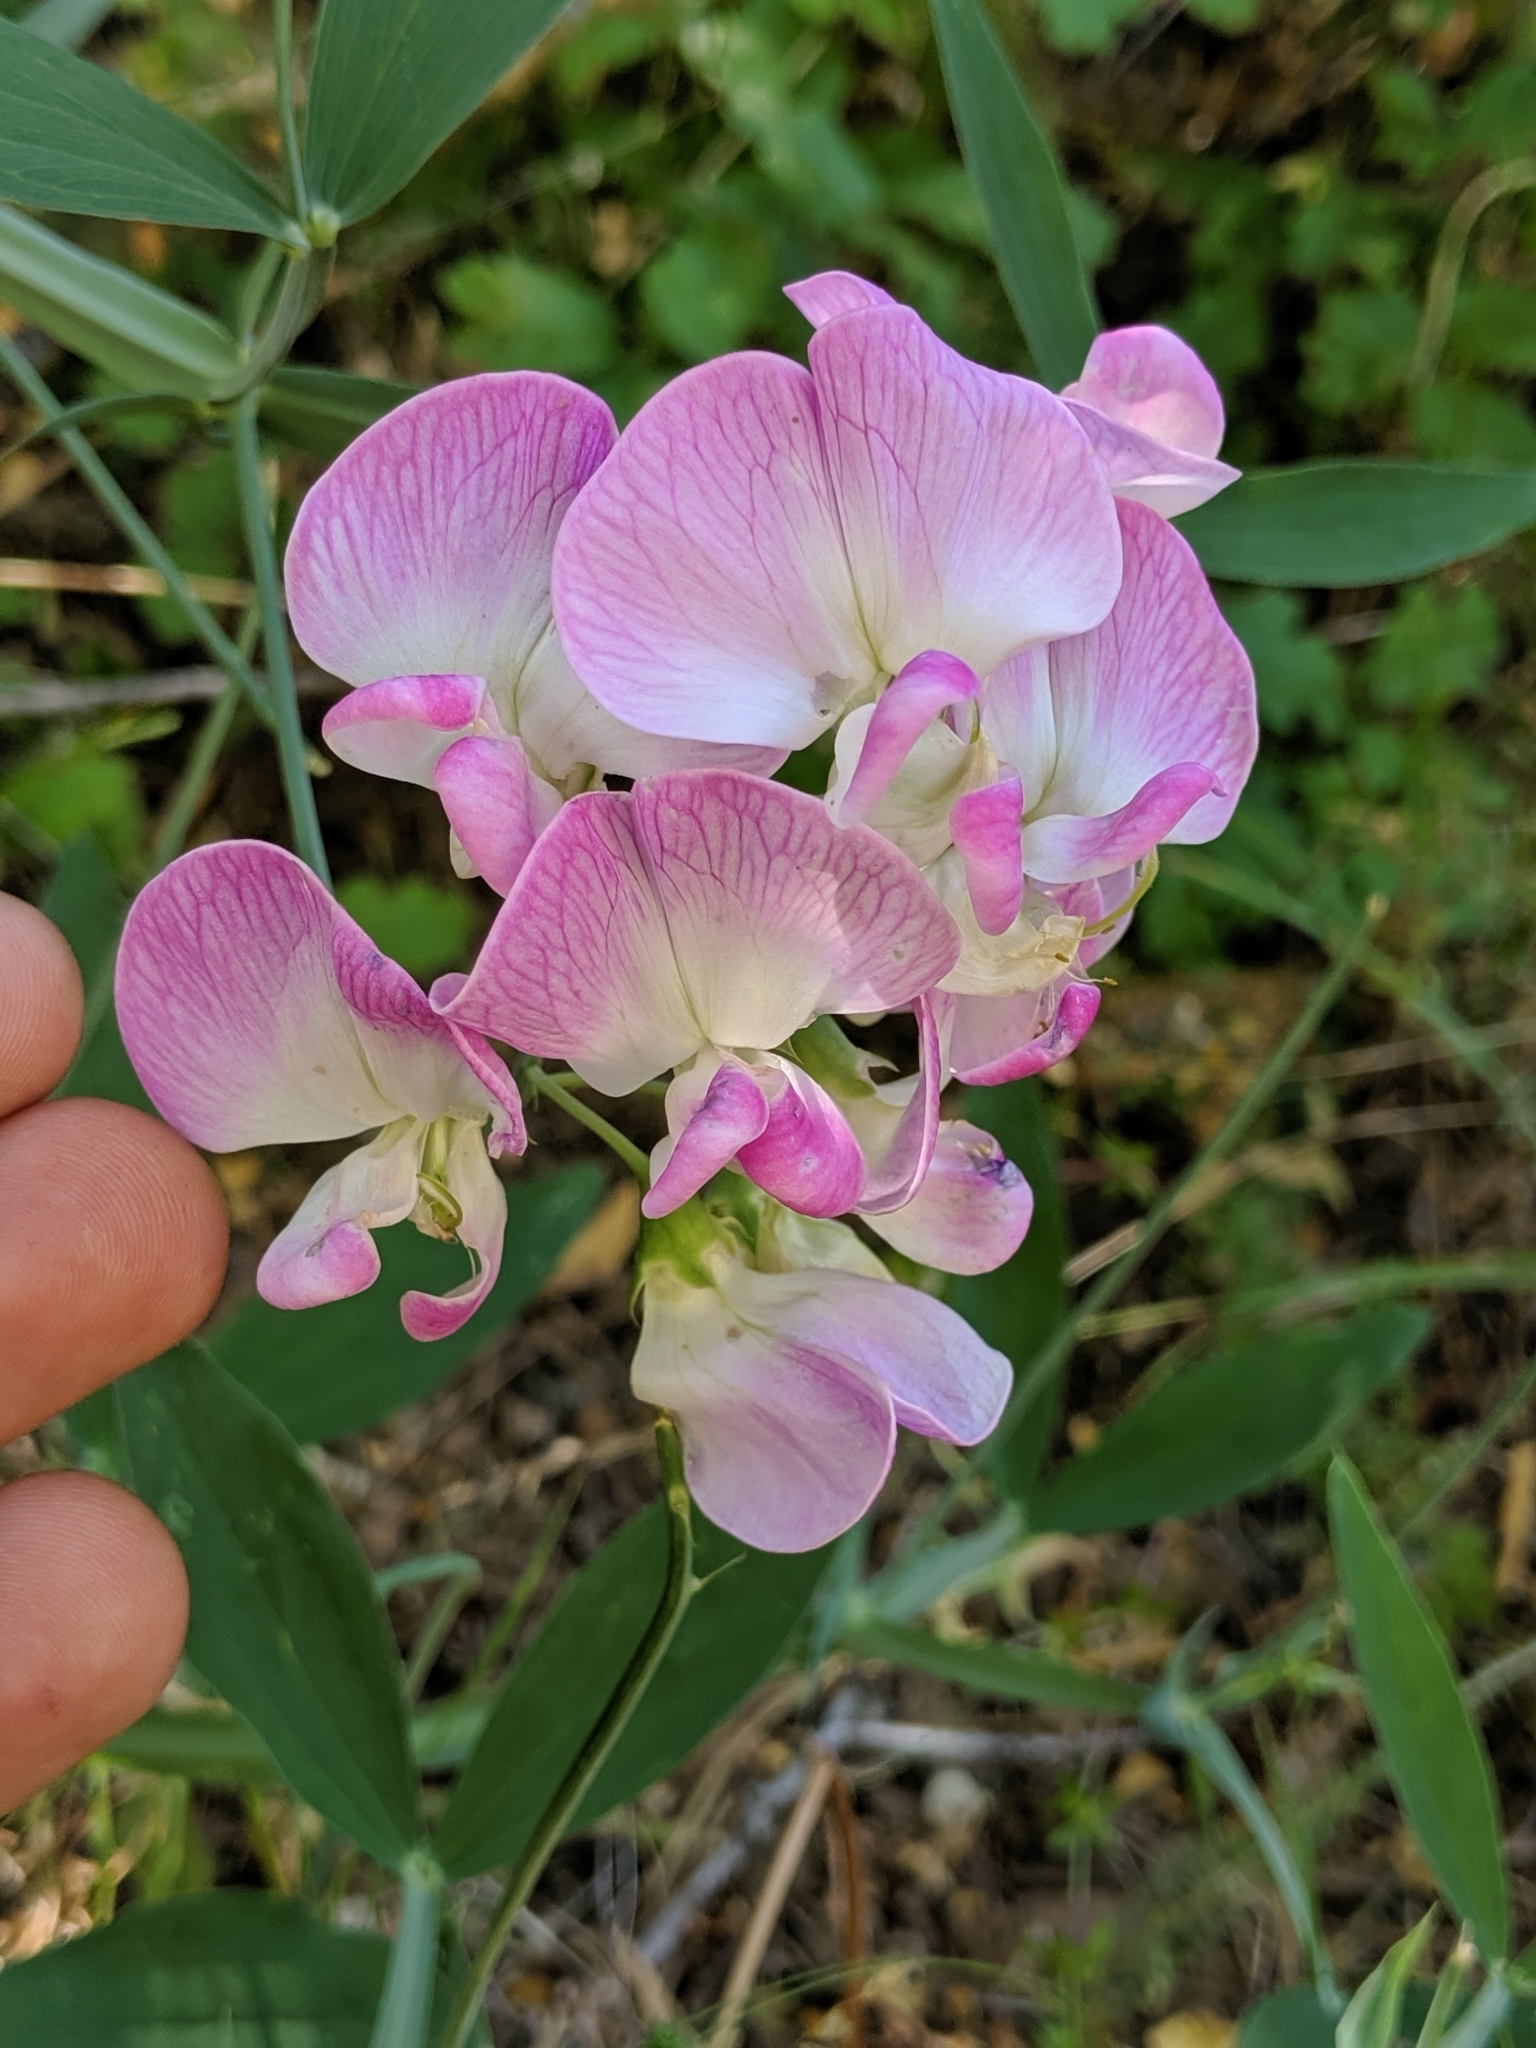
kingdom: Plantae
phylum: Tracheophyta
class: Magnoliopsida
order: Fabales
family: Fabaceae
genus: Lathyrus
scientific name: Lathyrus latifolius
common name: Perennial pea
